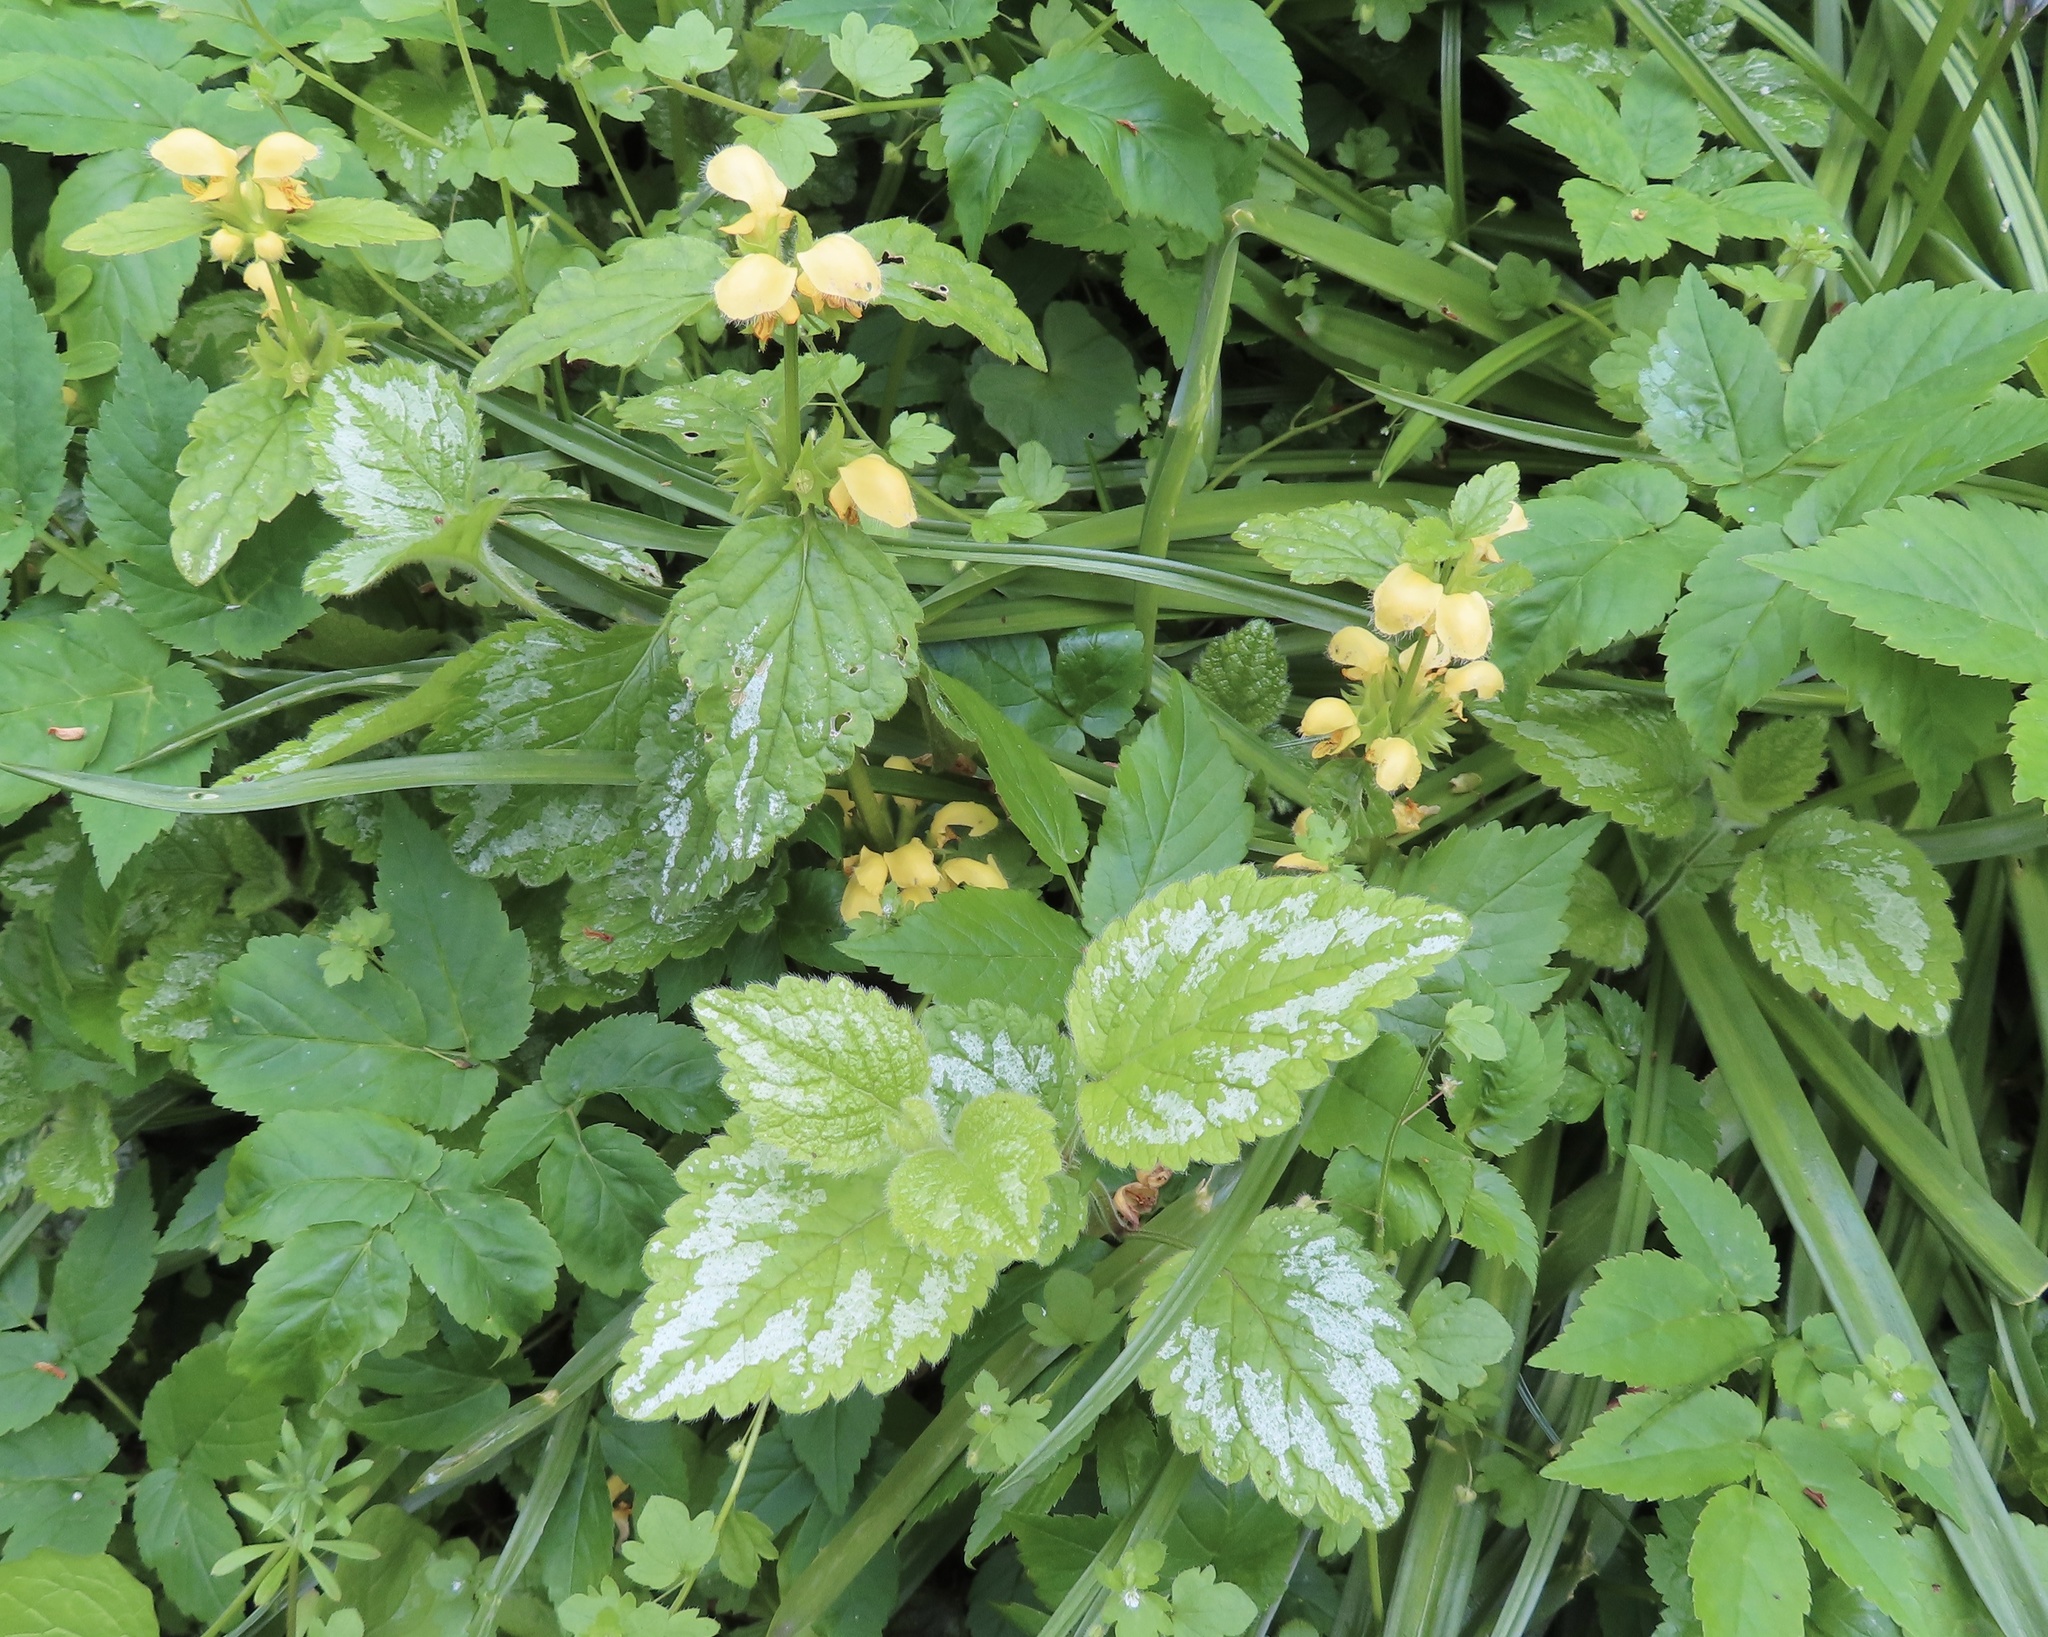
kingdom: Plantae
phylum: Tracheophyta
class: Magnoliopsida
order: Lamiales
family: Lamiaceae
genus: Lamium
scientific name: Lamium galeobdolon
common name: Yellow archangel
